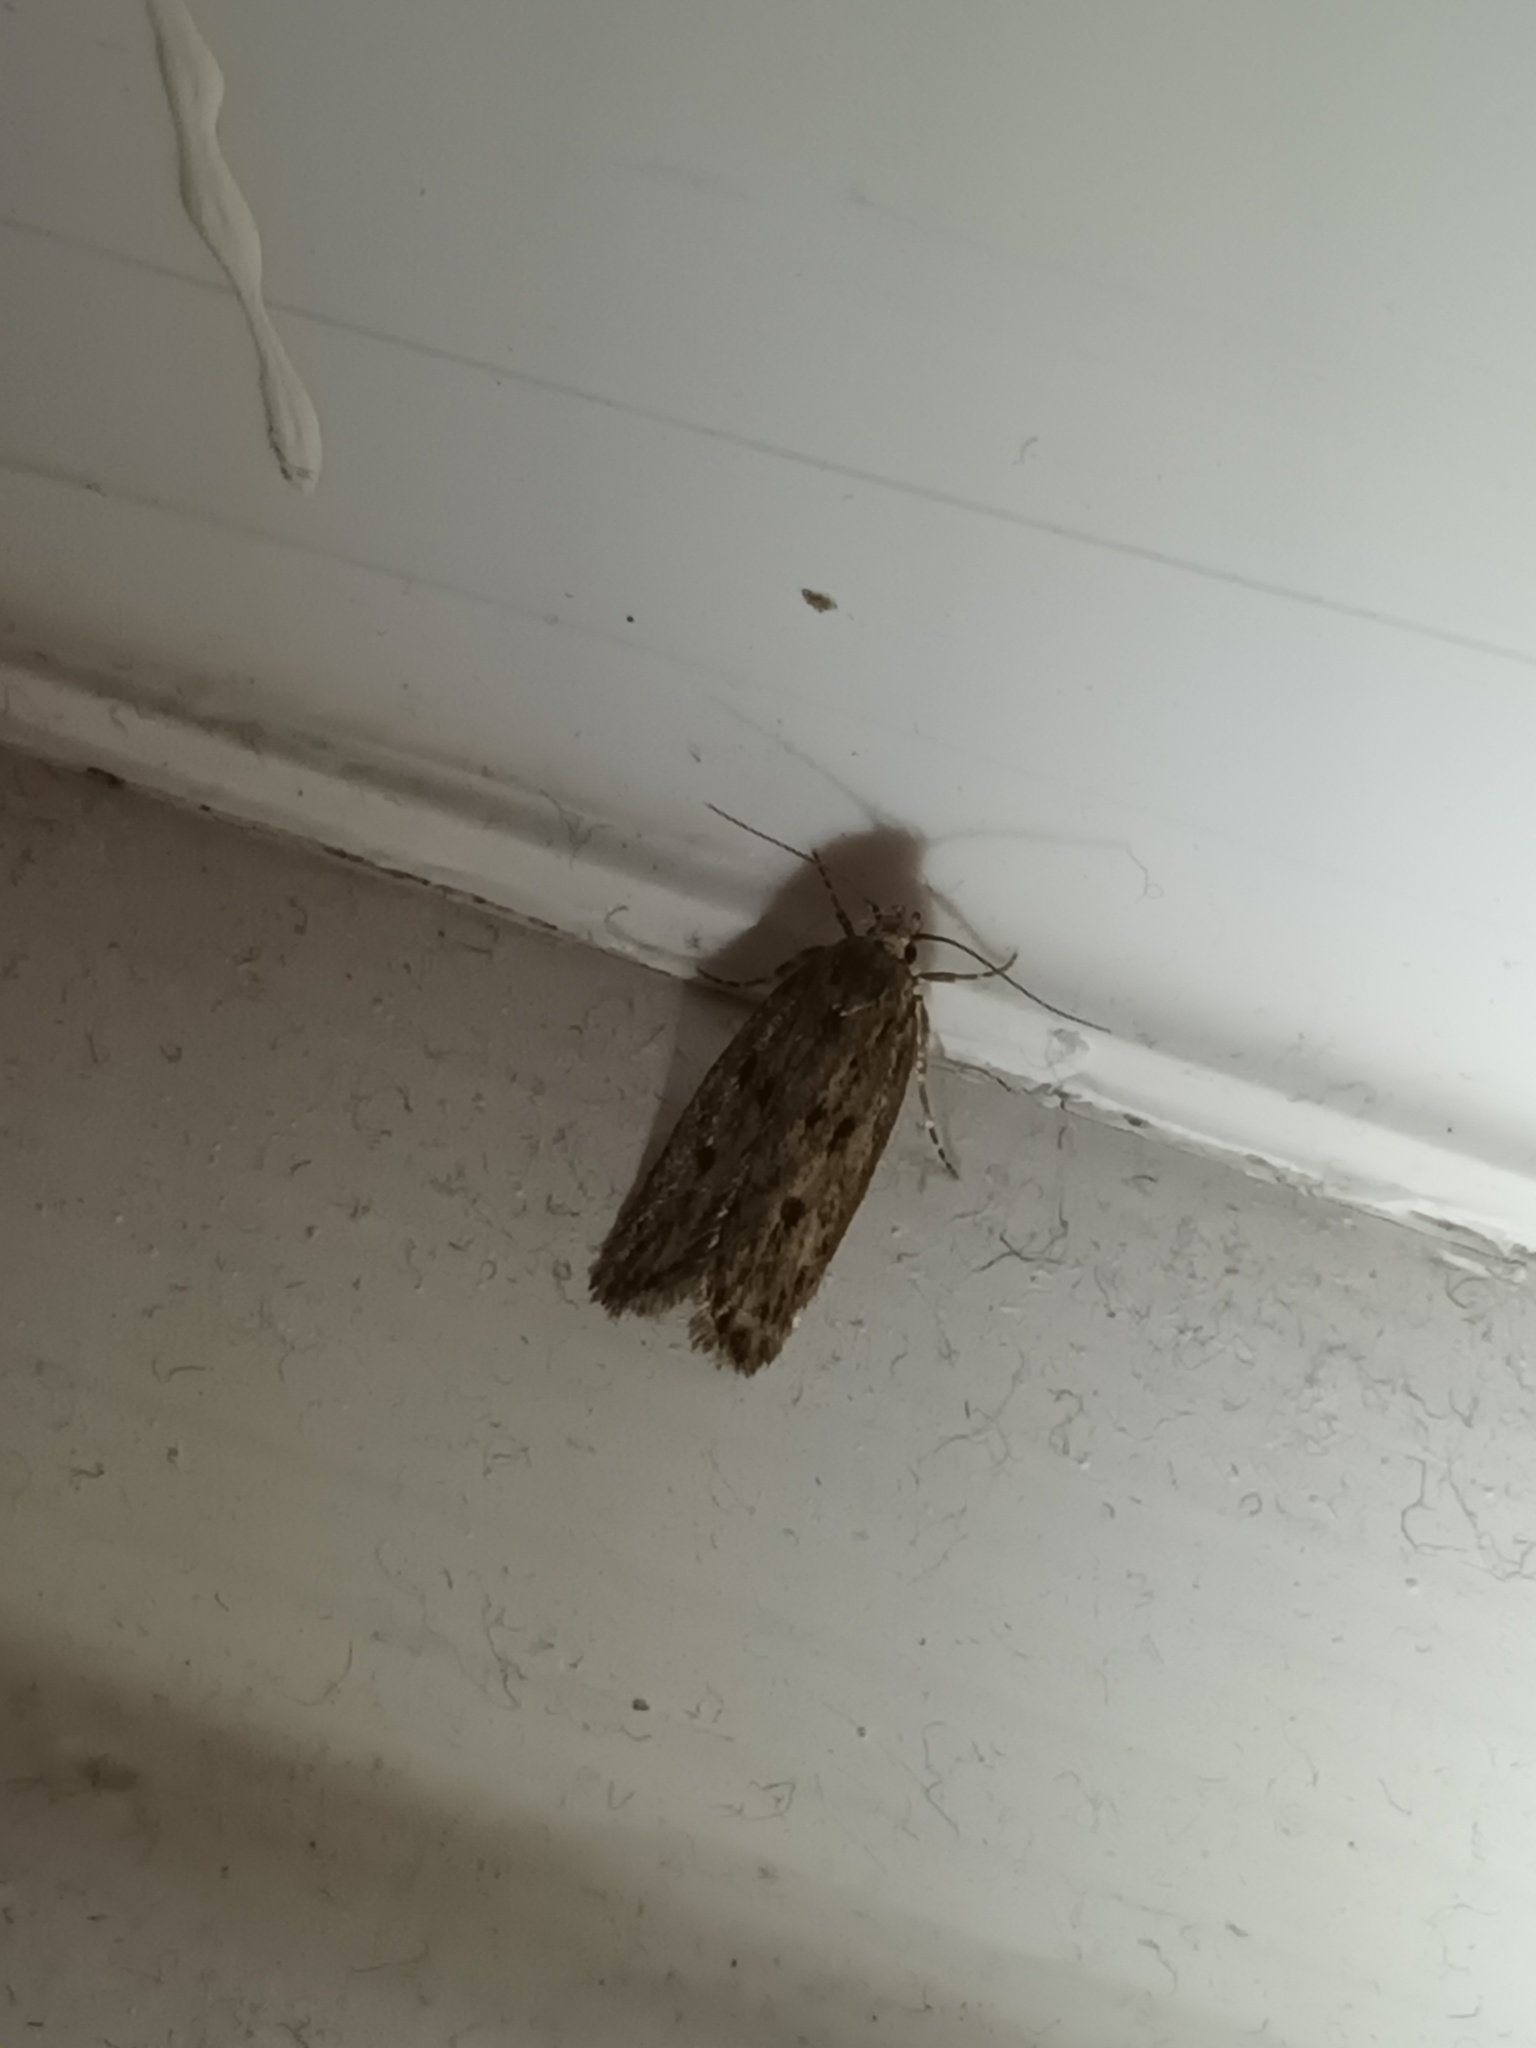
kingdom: Animalia
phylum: Arthropoda
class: Insecta
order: Lepidoptera
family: Oecophoridae
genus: Hofmannophila
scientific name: Hofmannophila pseudospretella
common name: Brown house moth
